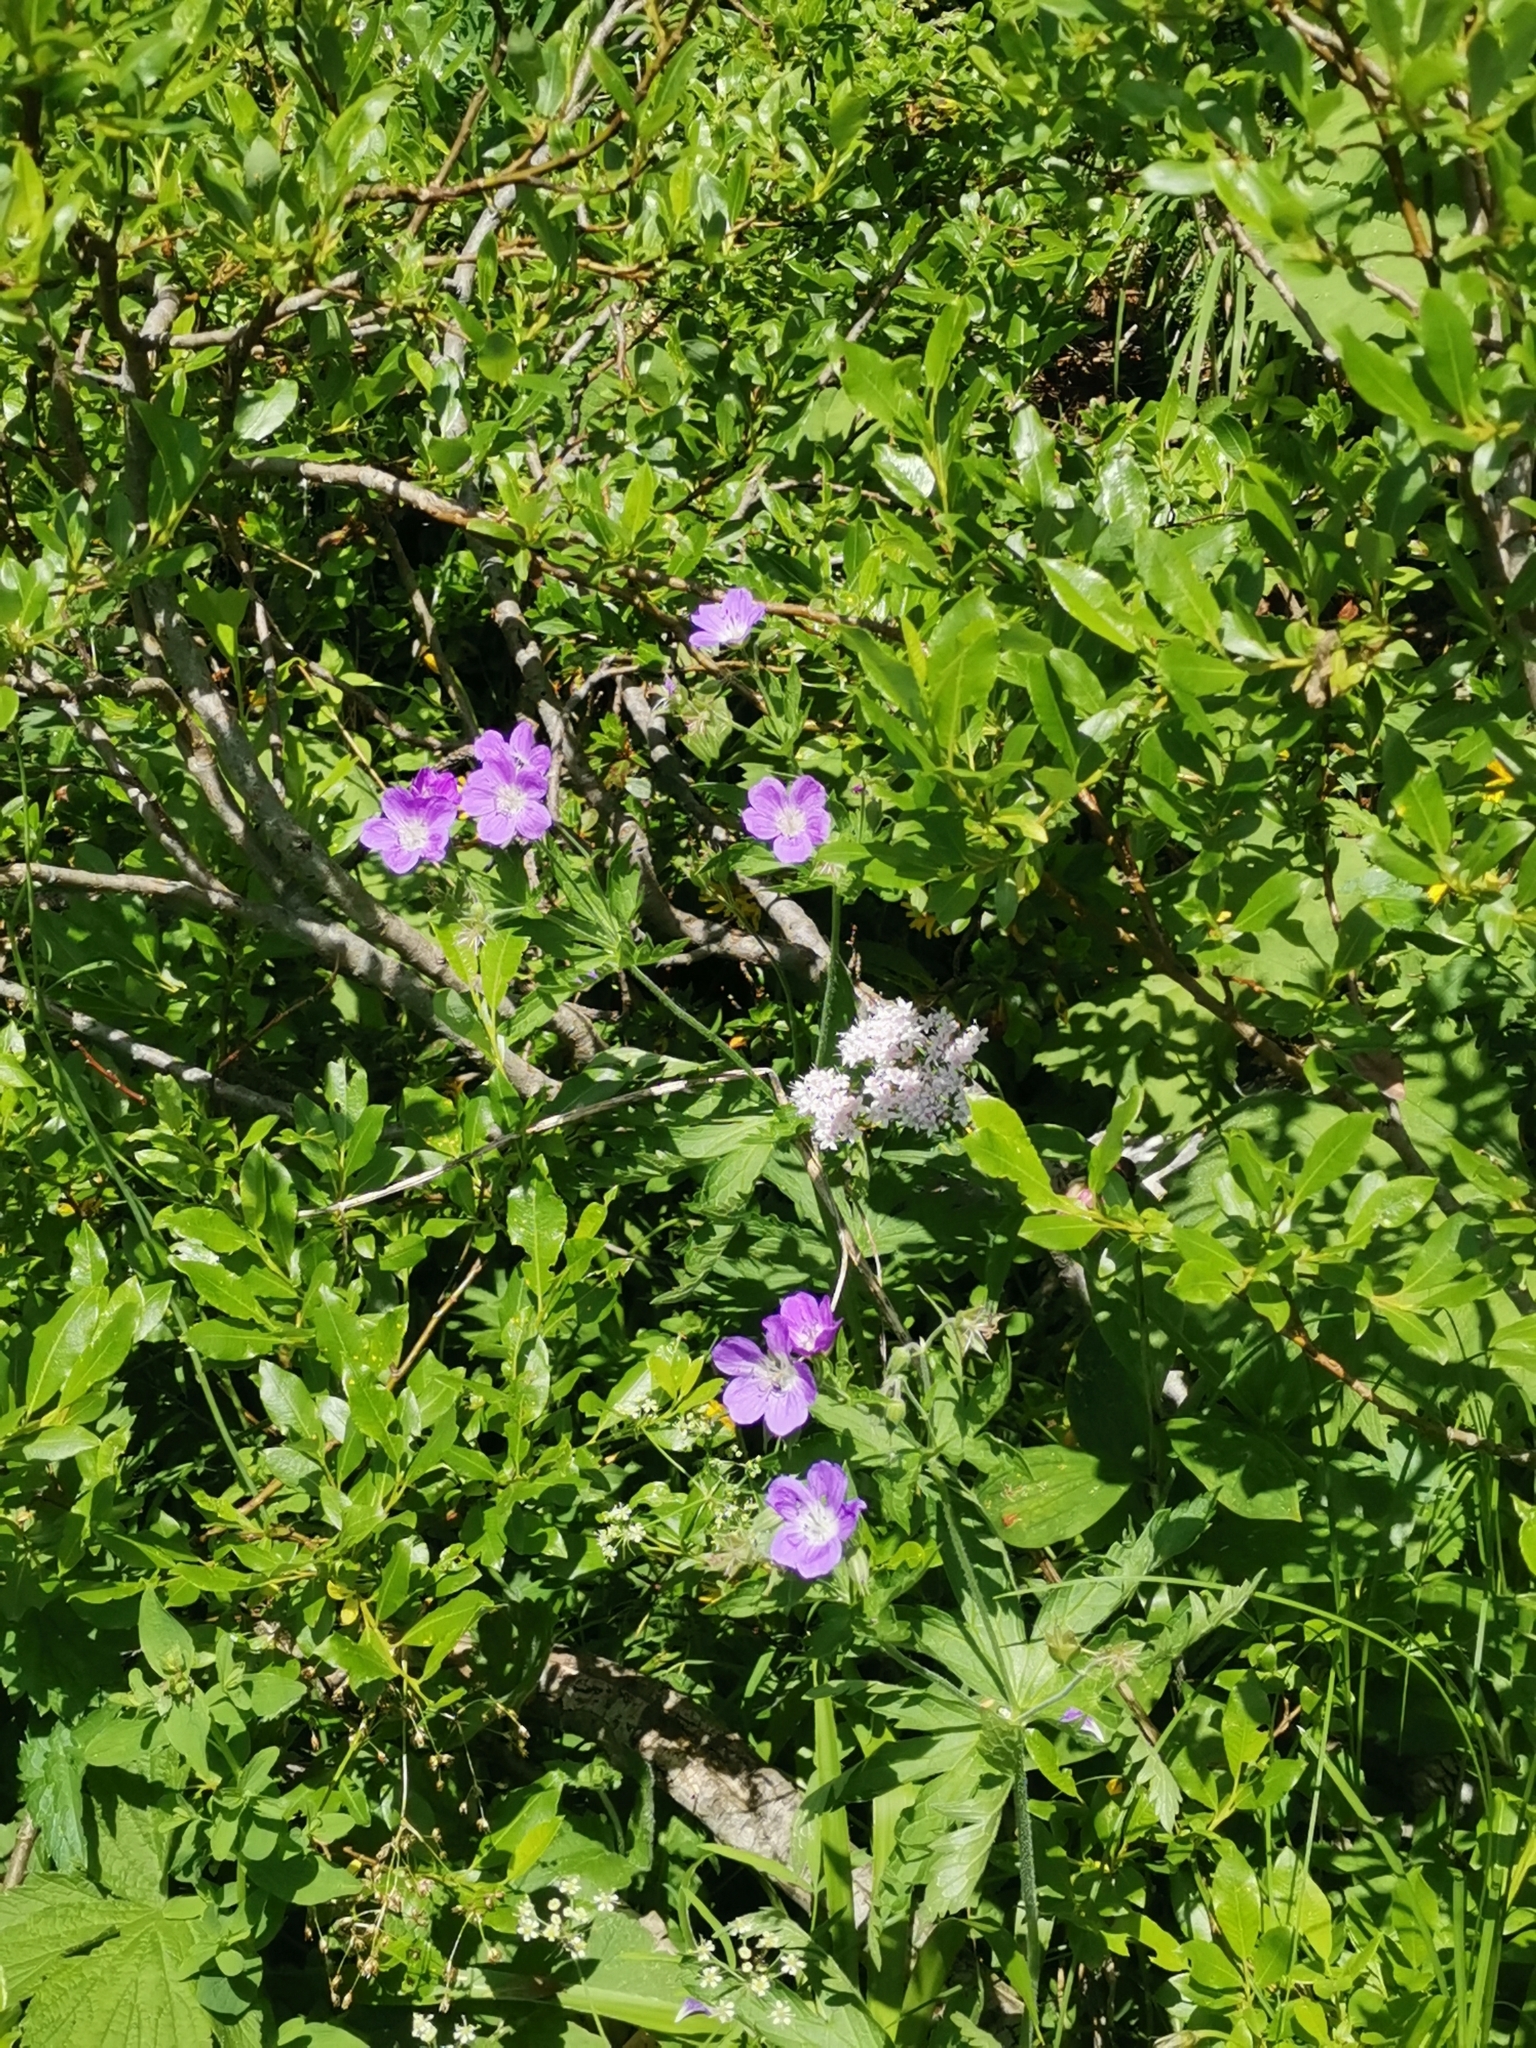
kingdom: Plantae
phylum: Tracheophyta
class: Magnoliopsida
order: Geraniales
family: Geraniaceae
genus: Geranium
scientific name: Geranium sylvaticum
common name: Wood crane's-bill
